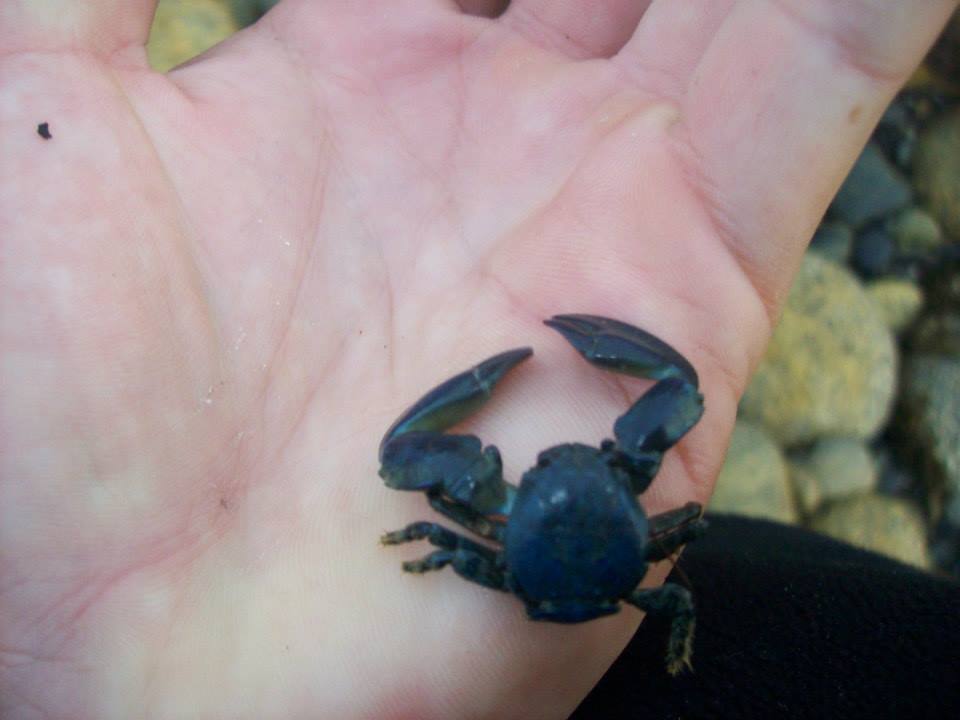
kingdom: Animalia
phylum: Arthropoda
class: Malacostraca
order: Decapoda
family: Porcellanidae
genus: Petrolisthes
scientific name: Petrolisthes elongatus
